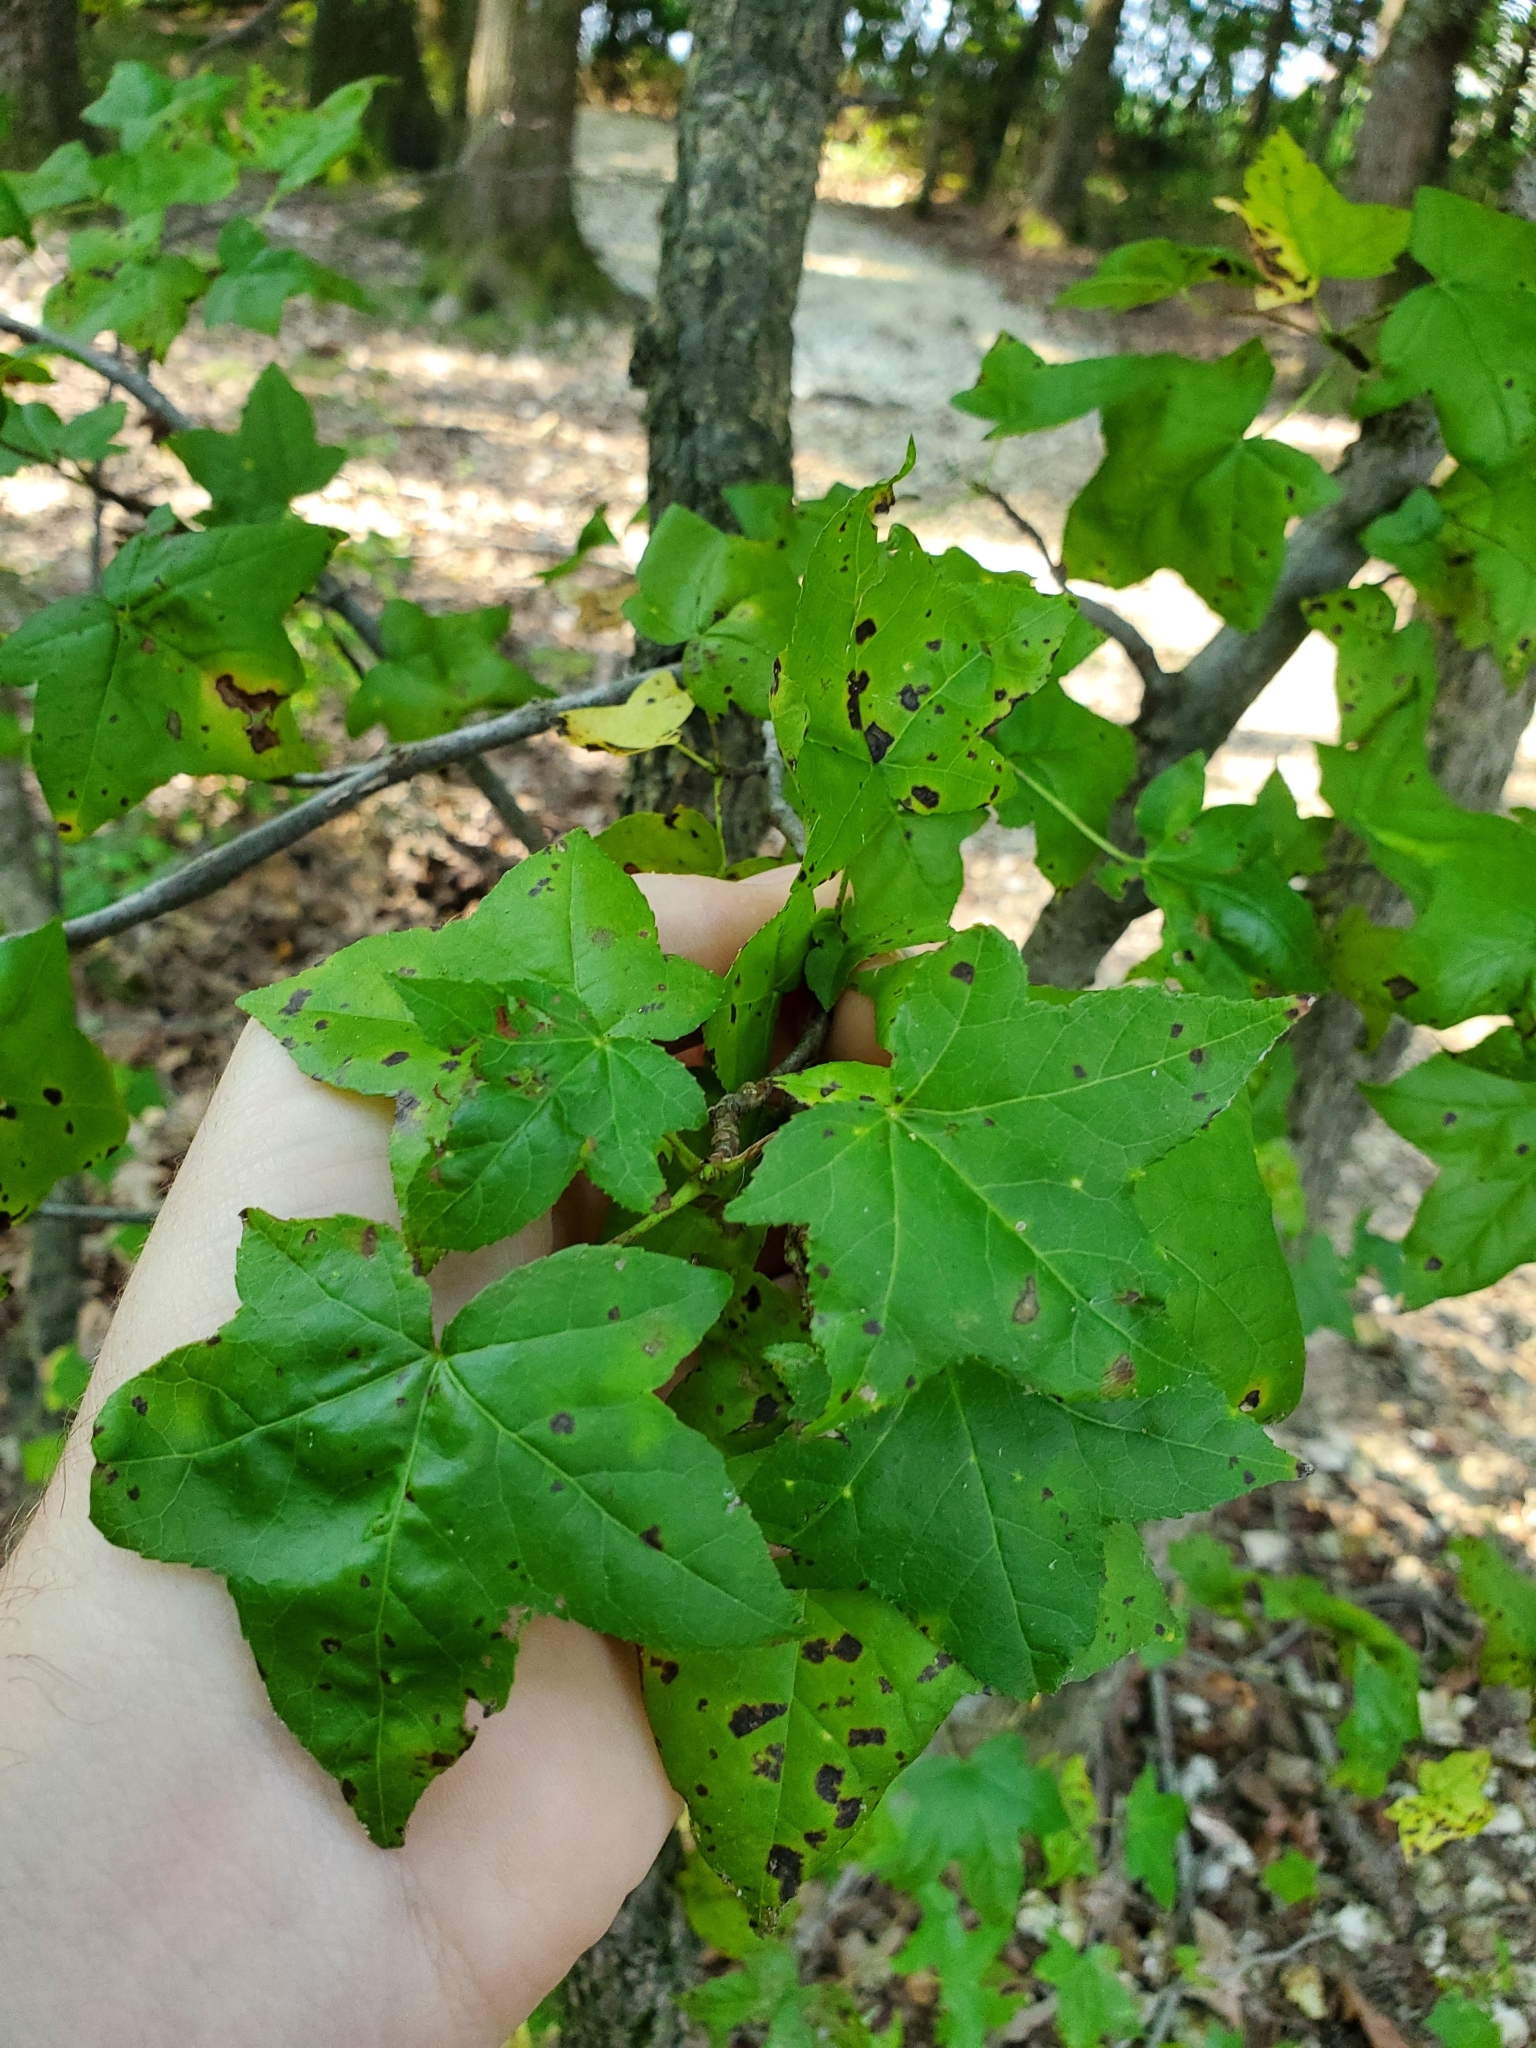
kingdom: Plantae
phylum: Tracheophyta
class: Magnoliopsida
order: Saxifragales
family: Altingiaceae
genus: Liquidambar
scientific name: Liquidambar styraciflua
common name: Sweet gum
